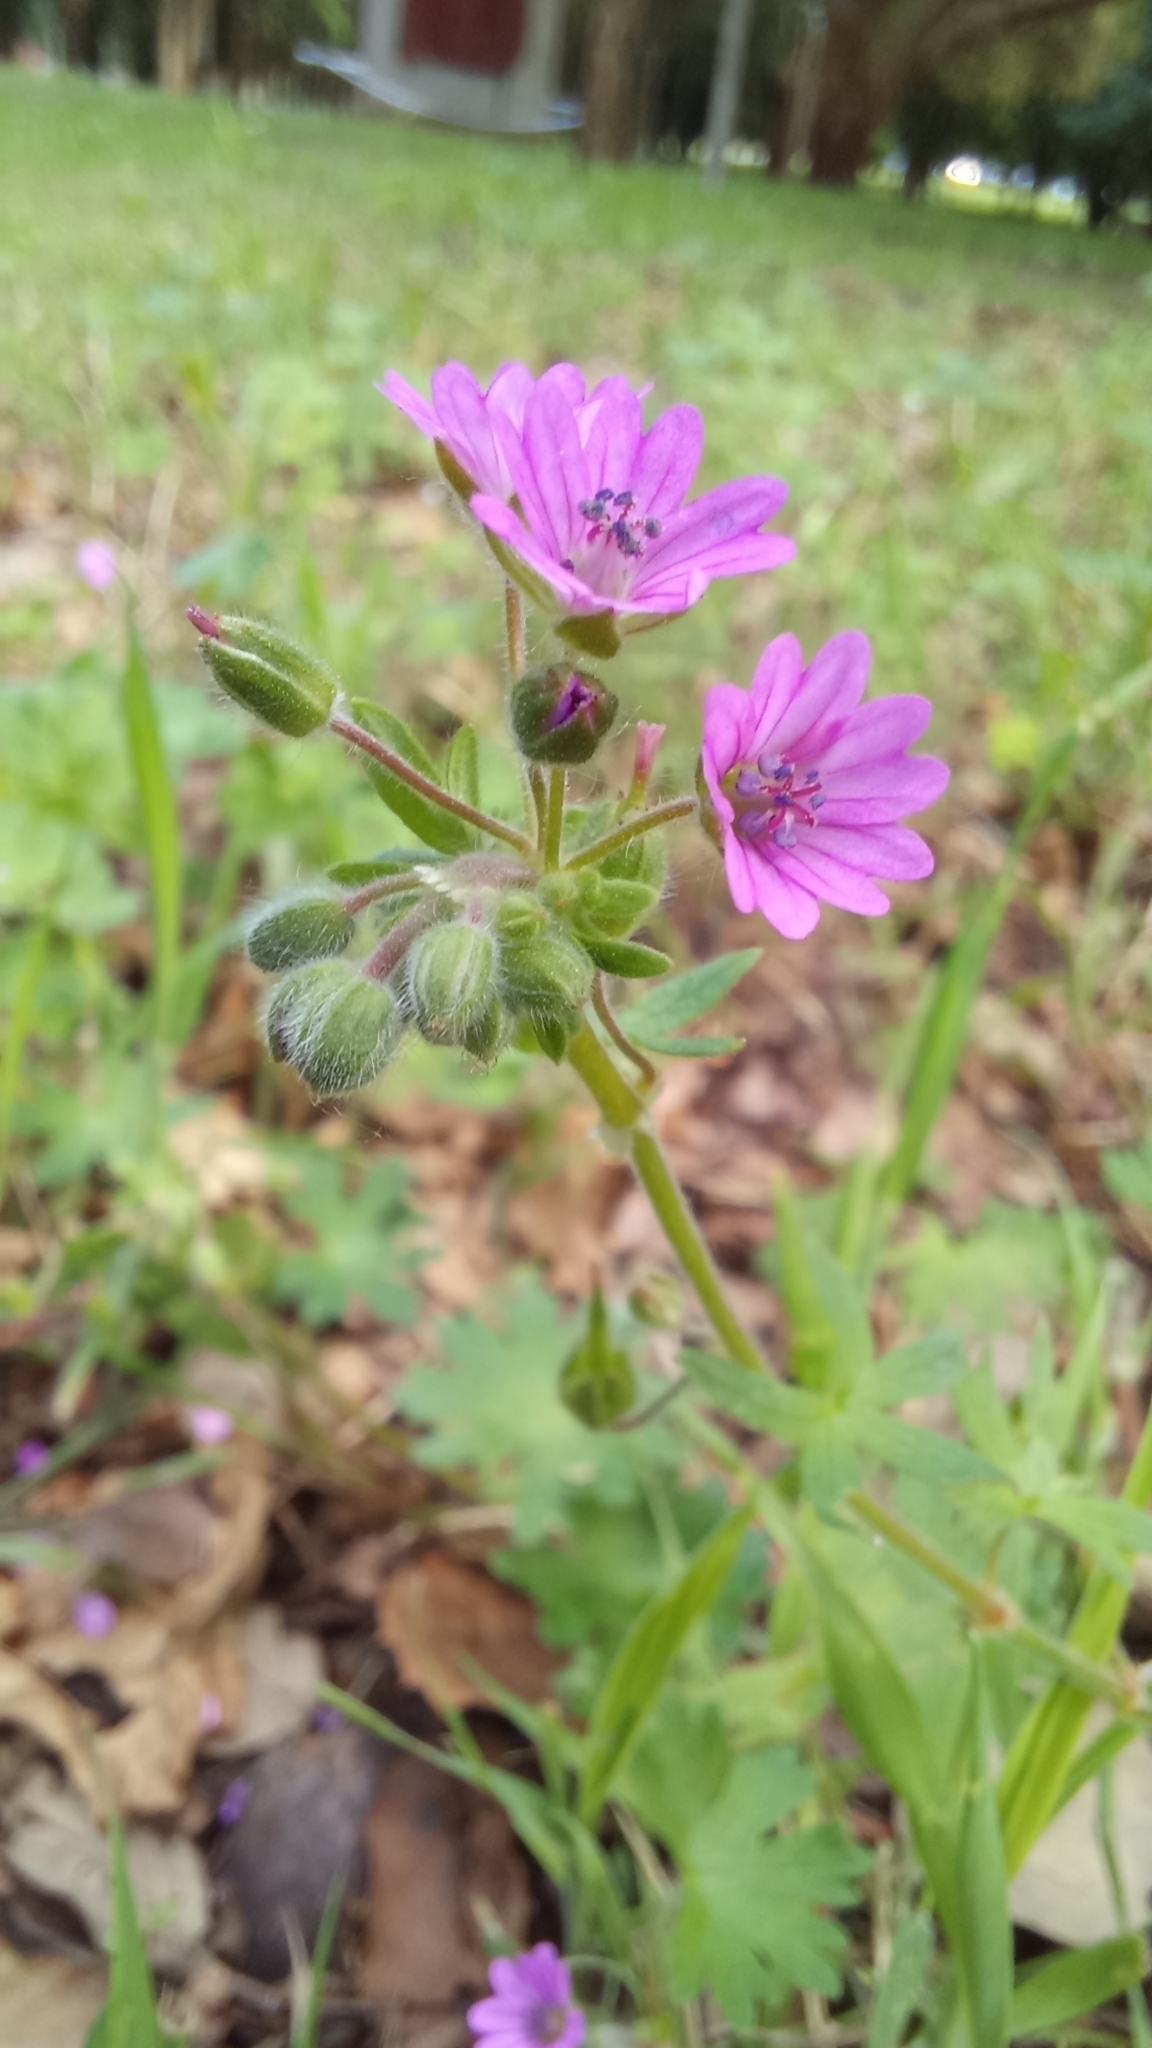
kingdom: Plantae
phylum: Tracheophyta
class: Magnoliopsida
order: Geraniales
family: Geraniaceae
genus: Geranium
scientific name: Geranium molle
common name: Dove's-foot crane's-bill
